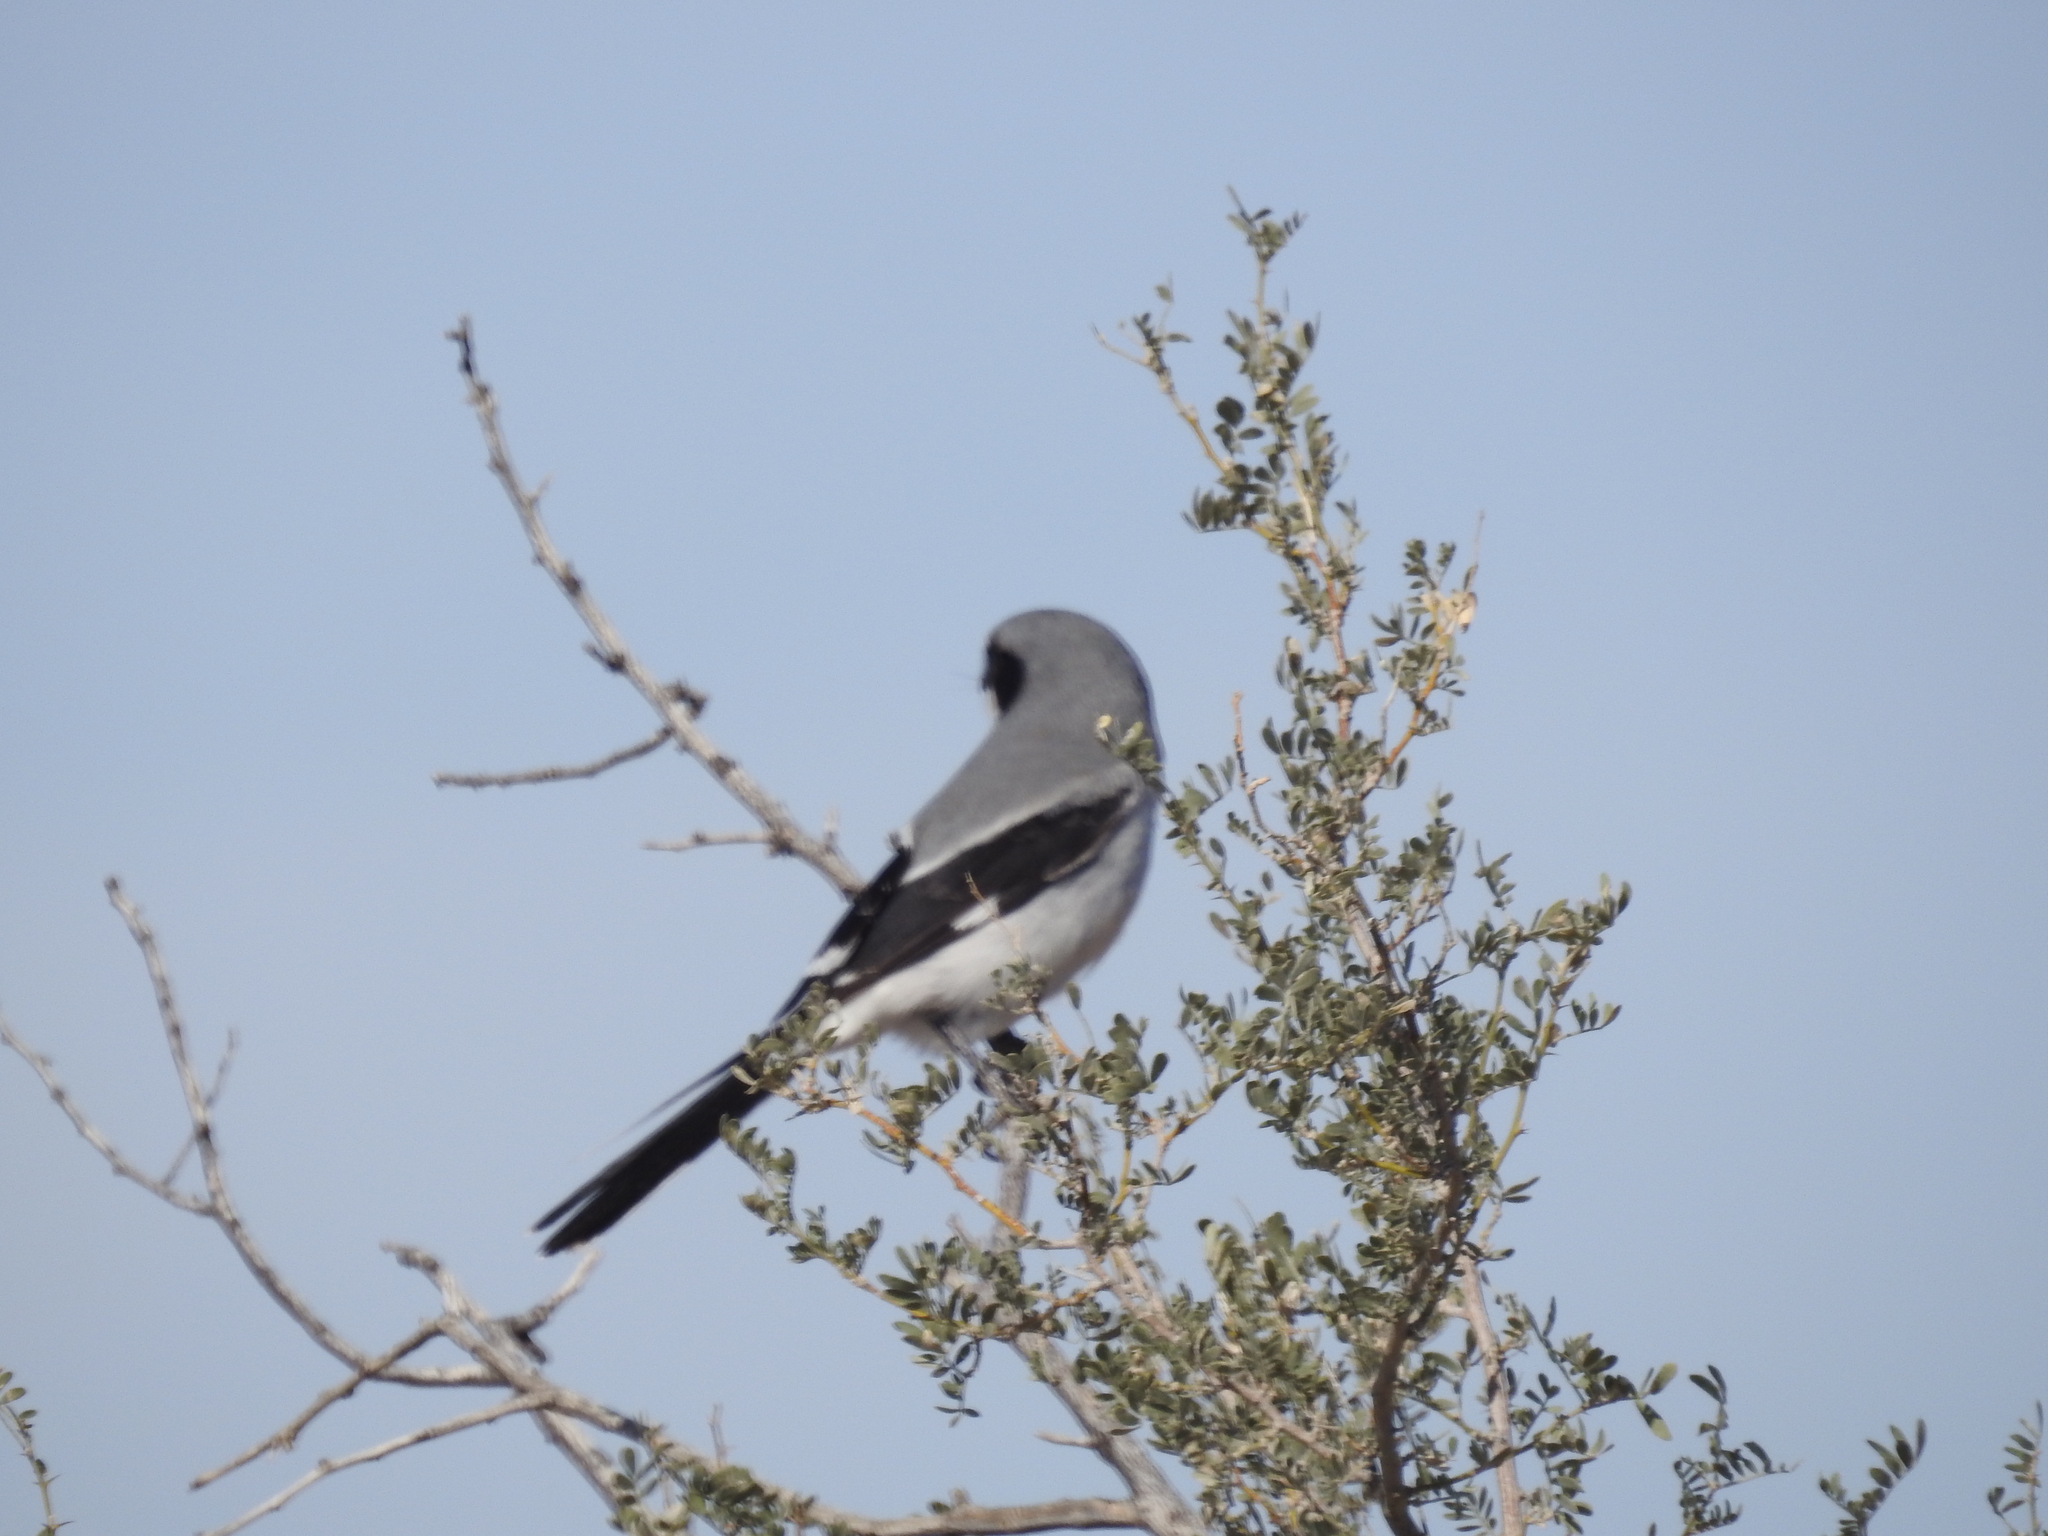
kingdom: Animalia
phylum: Chordata
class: Aves
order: Passeriformes
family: Laniidae
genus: Lanius
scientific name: Lanius ludovicianus
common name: Loggerhead shrike
